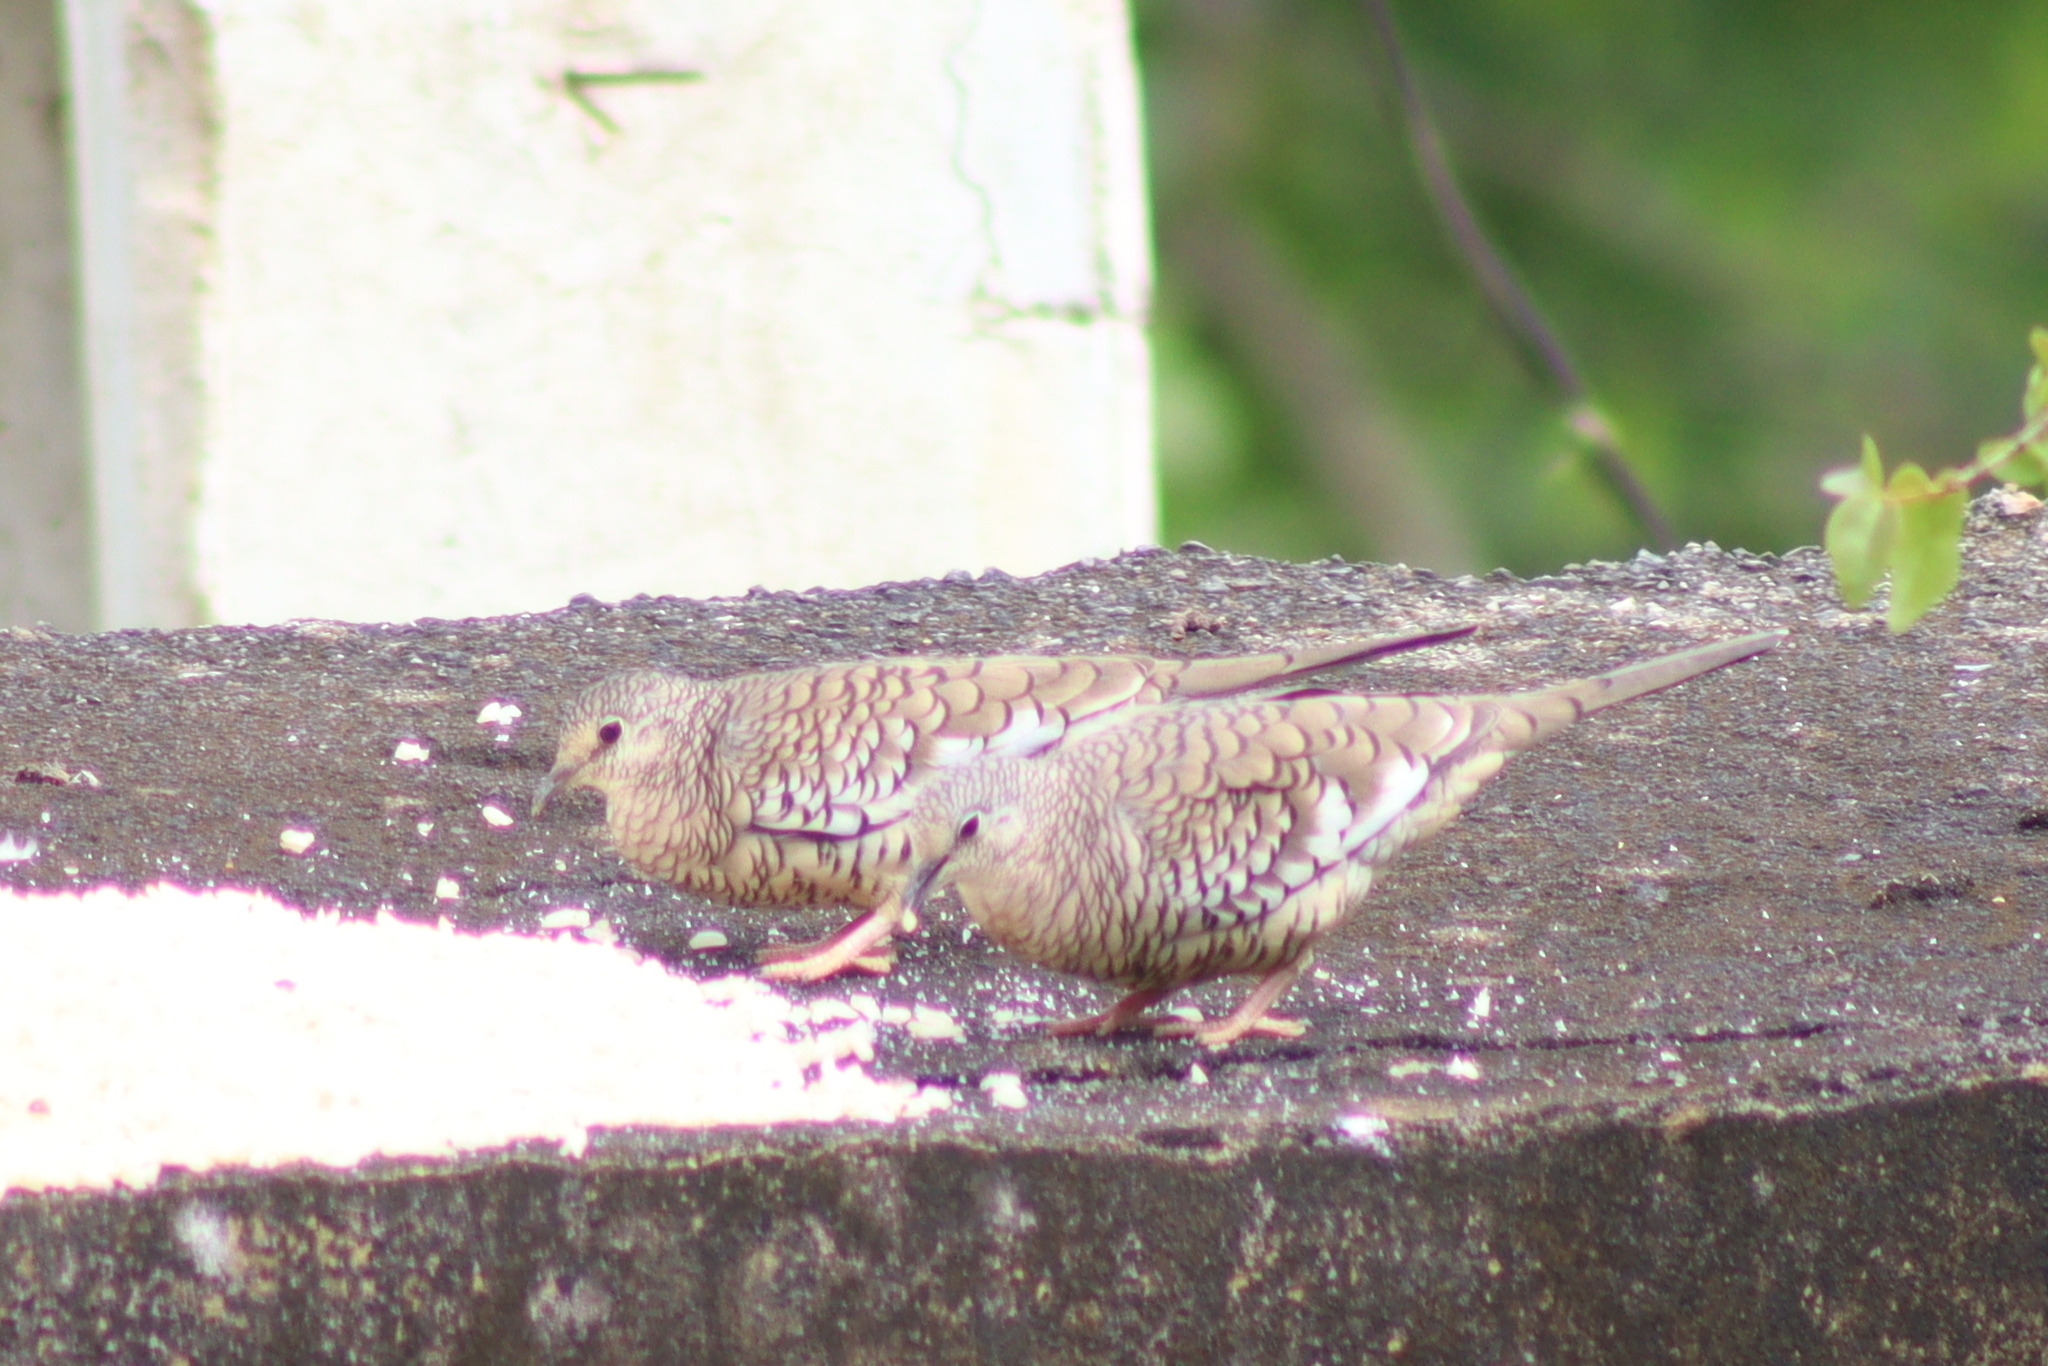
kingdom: Animalia
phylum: Chordata
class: Aves
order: Columbiformes
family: Columbidae
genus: Columbina
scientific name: Columbina squammata
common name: Scaled dove
